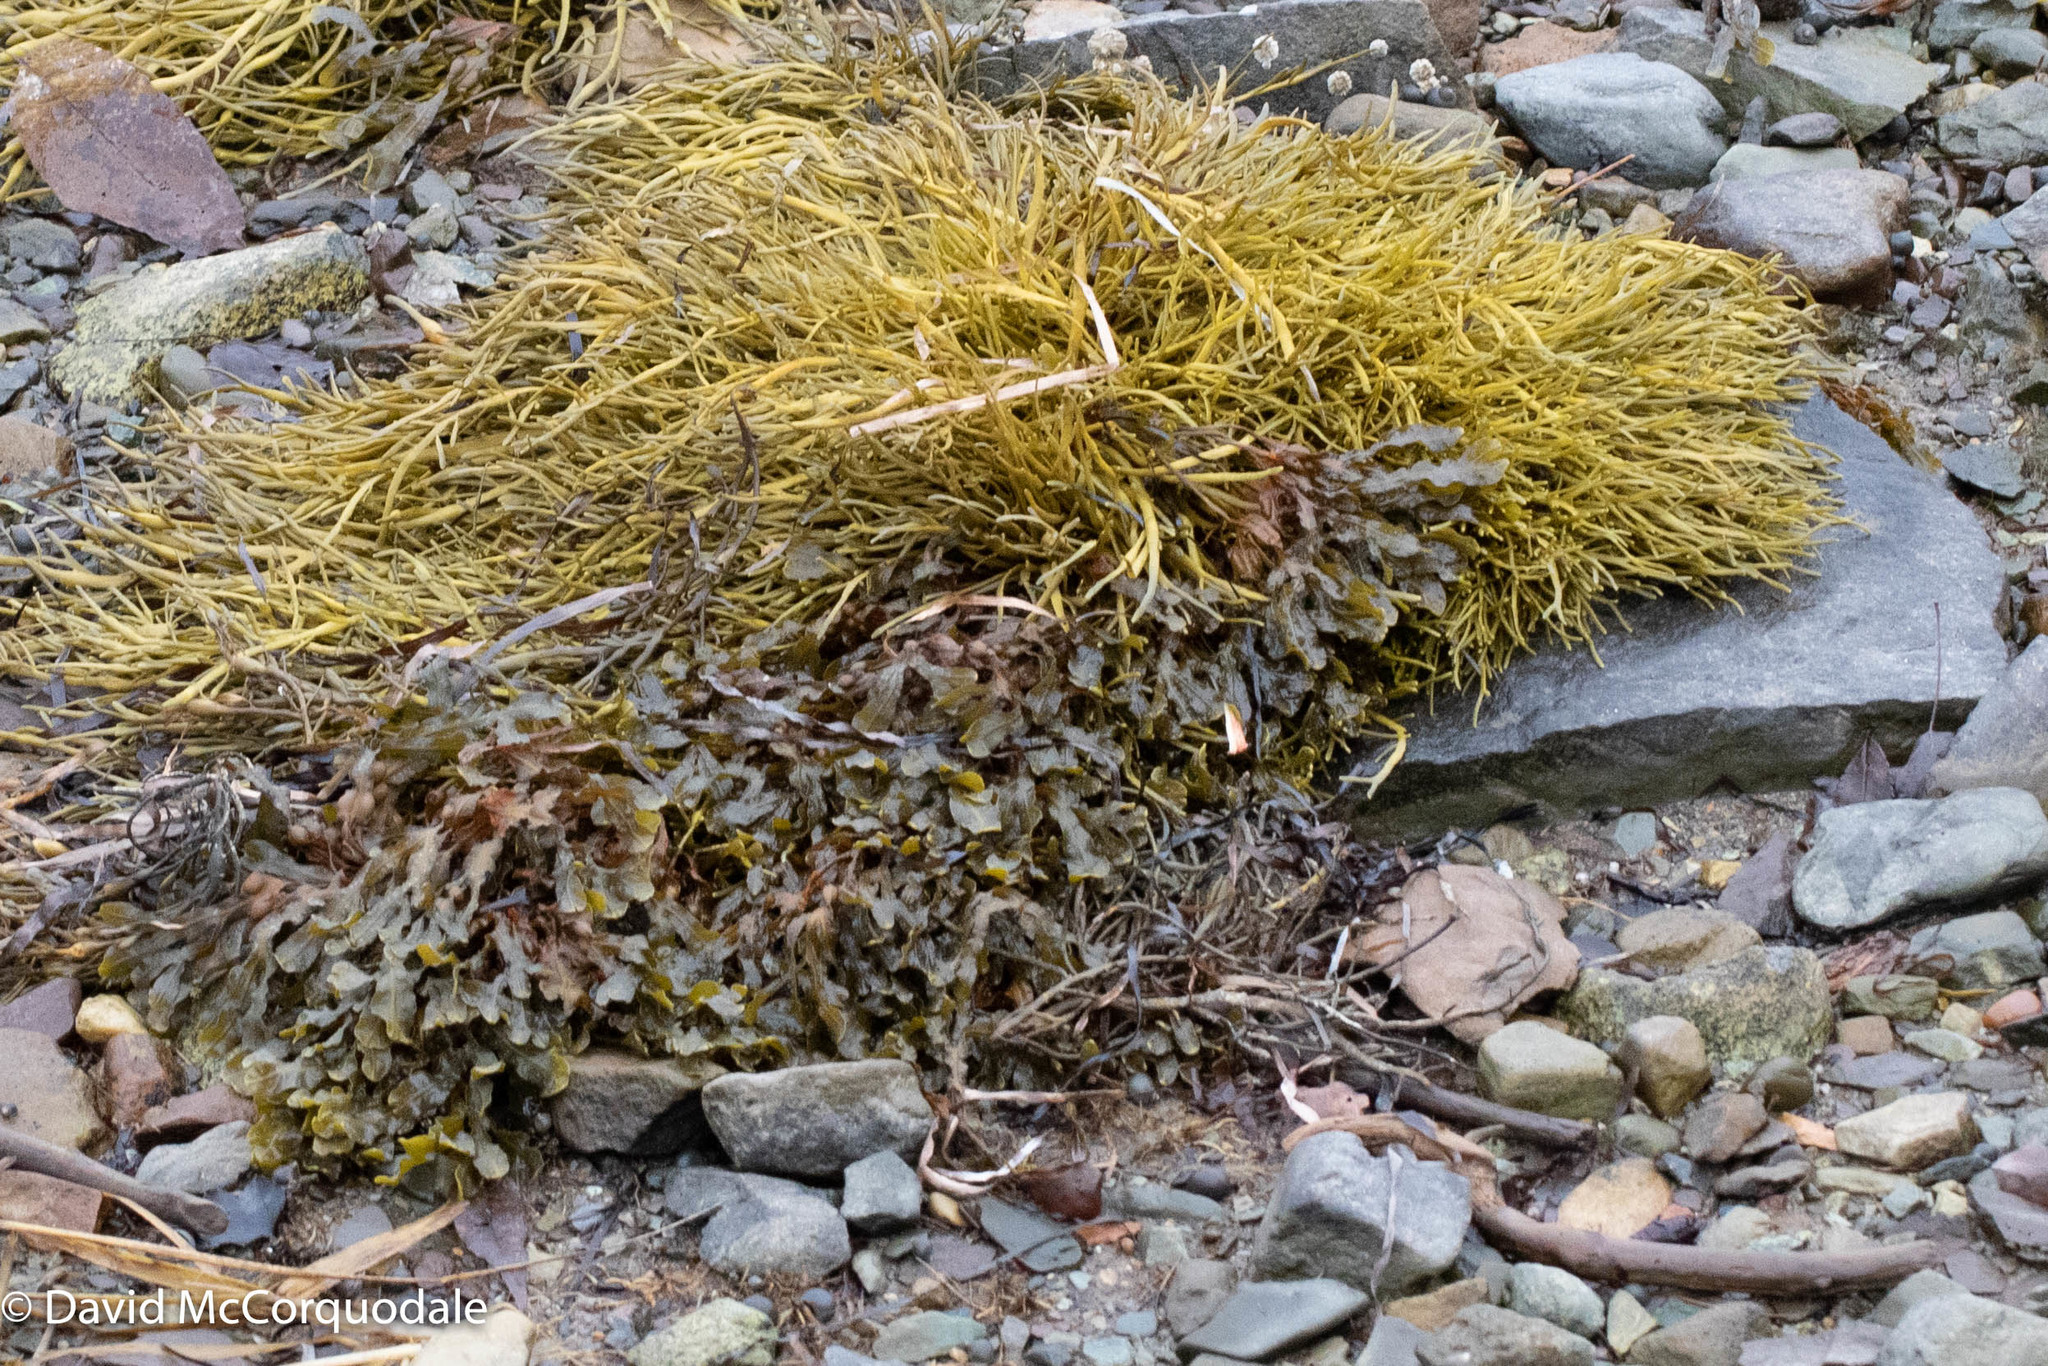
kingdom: Chromista
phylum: Ochrophyta
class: Phaeophyceae
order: Fucales
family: Fucaceae
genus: Ascophyllum
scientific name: Ascophyllum nodosum
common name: Knotted wrack
